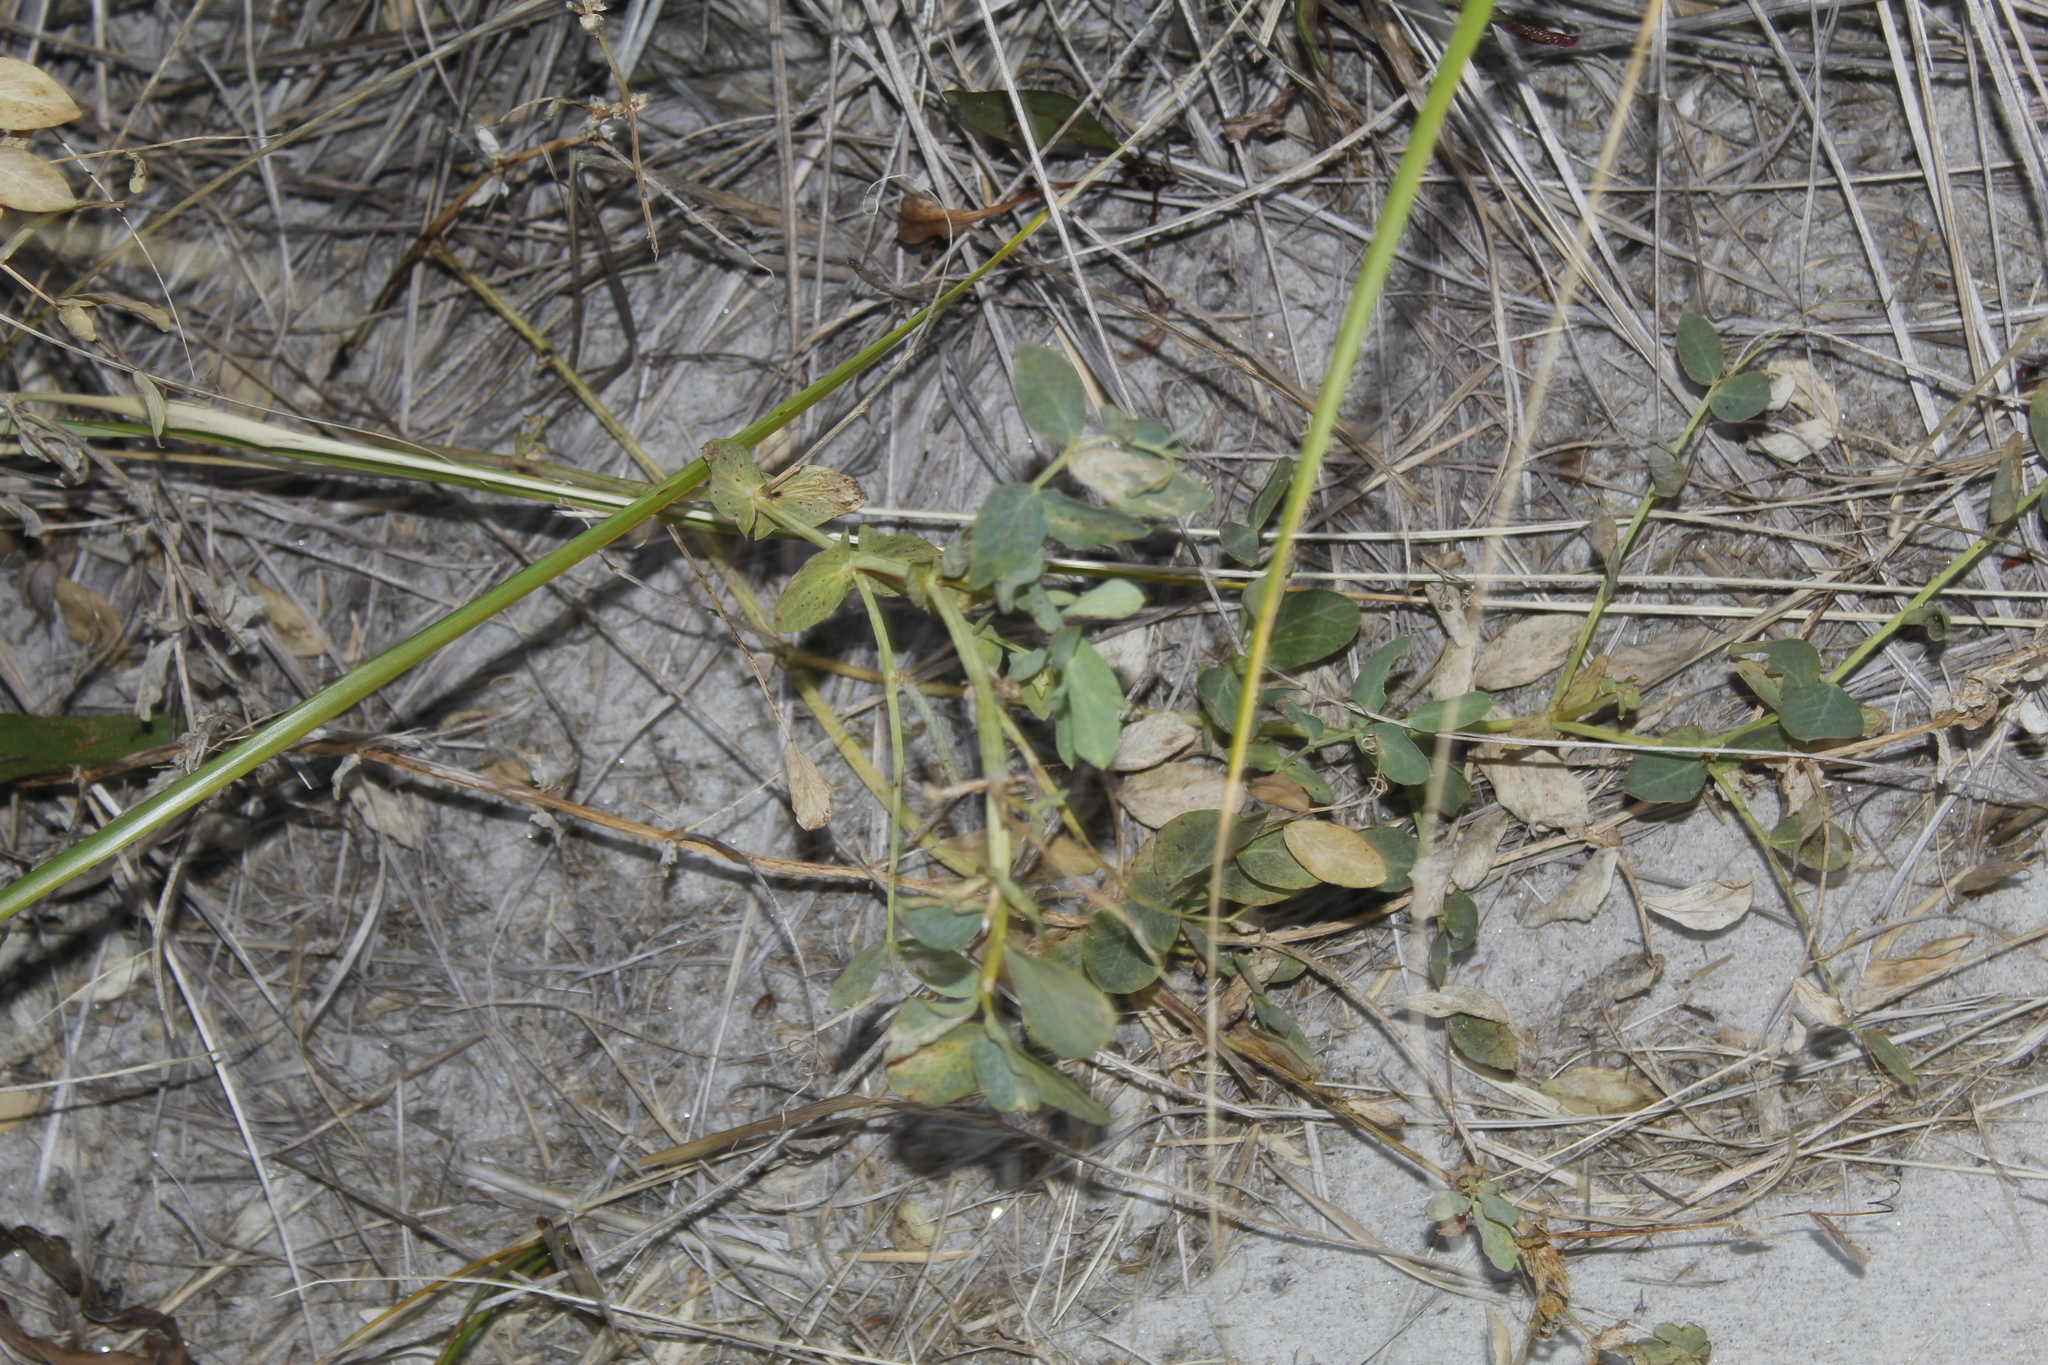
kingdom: Plantae
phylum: Tracheophyta
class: Magnoliopsida
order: Fabales
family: Fabaceae
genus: Lathyrus
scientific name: Lathyrus japonicus
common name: Sea pea
